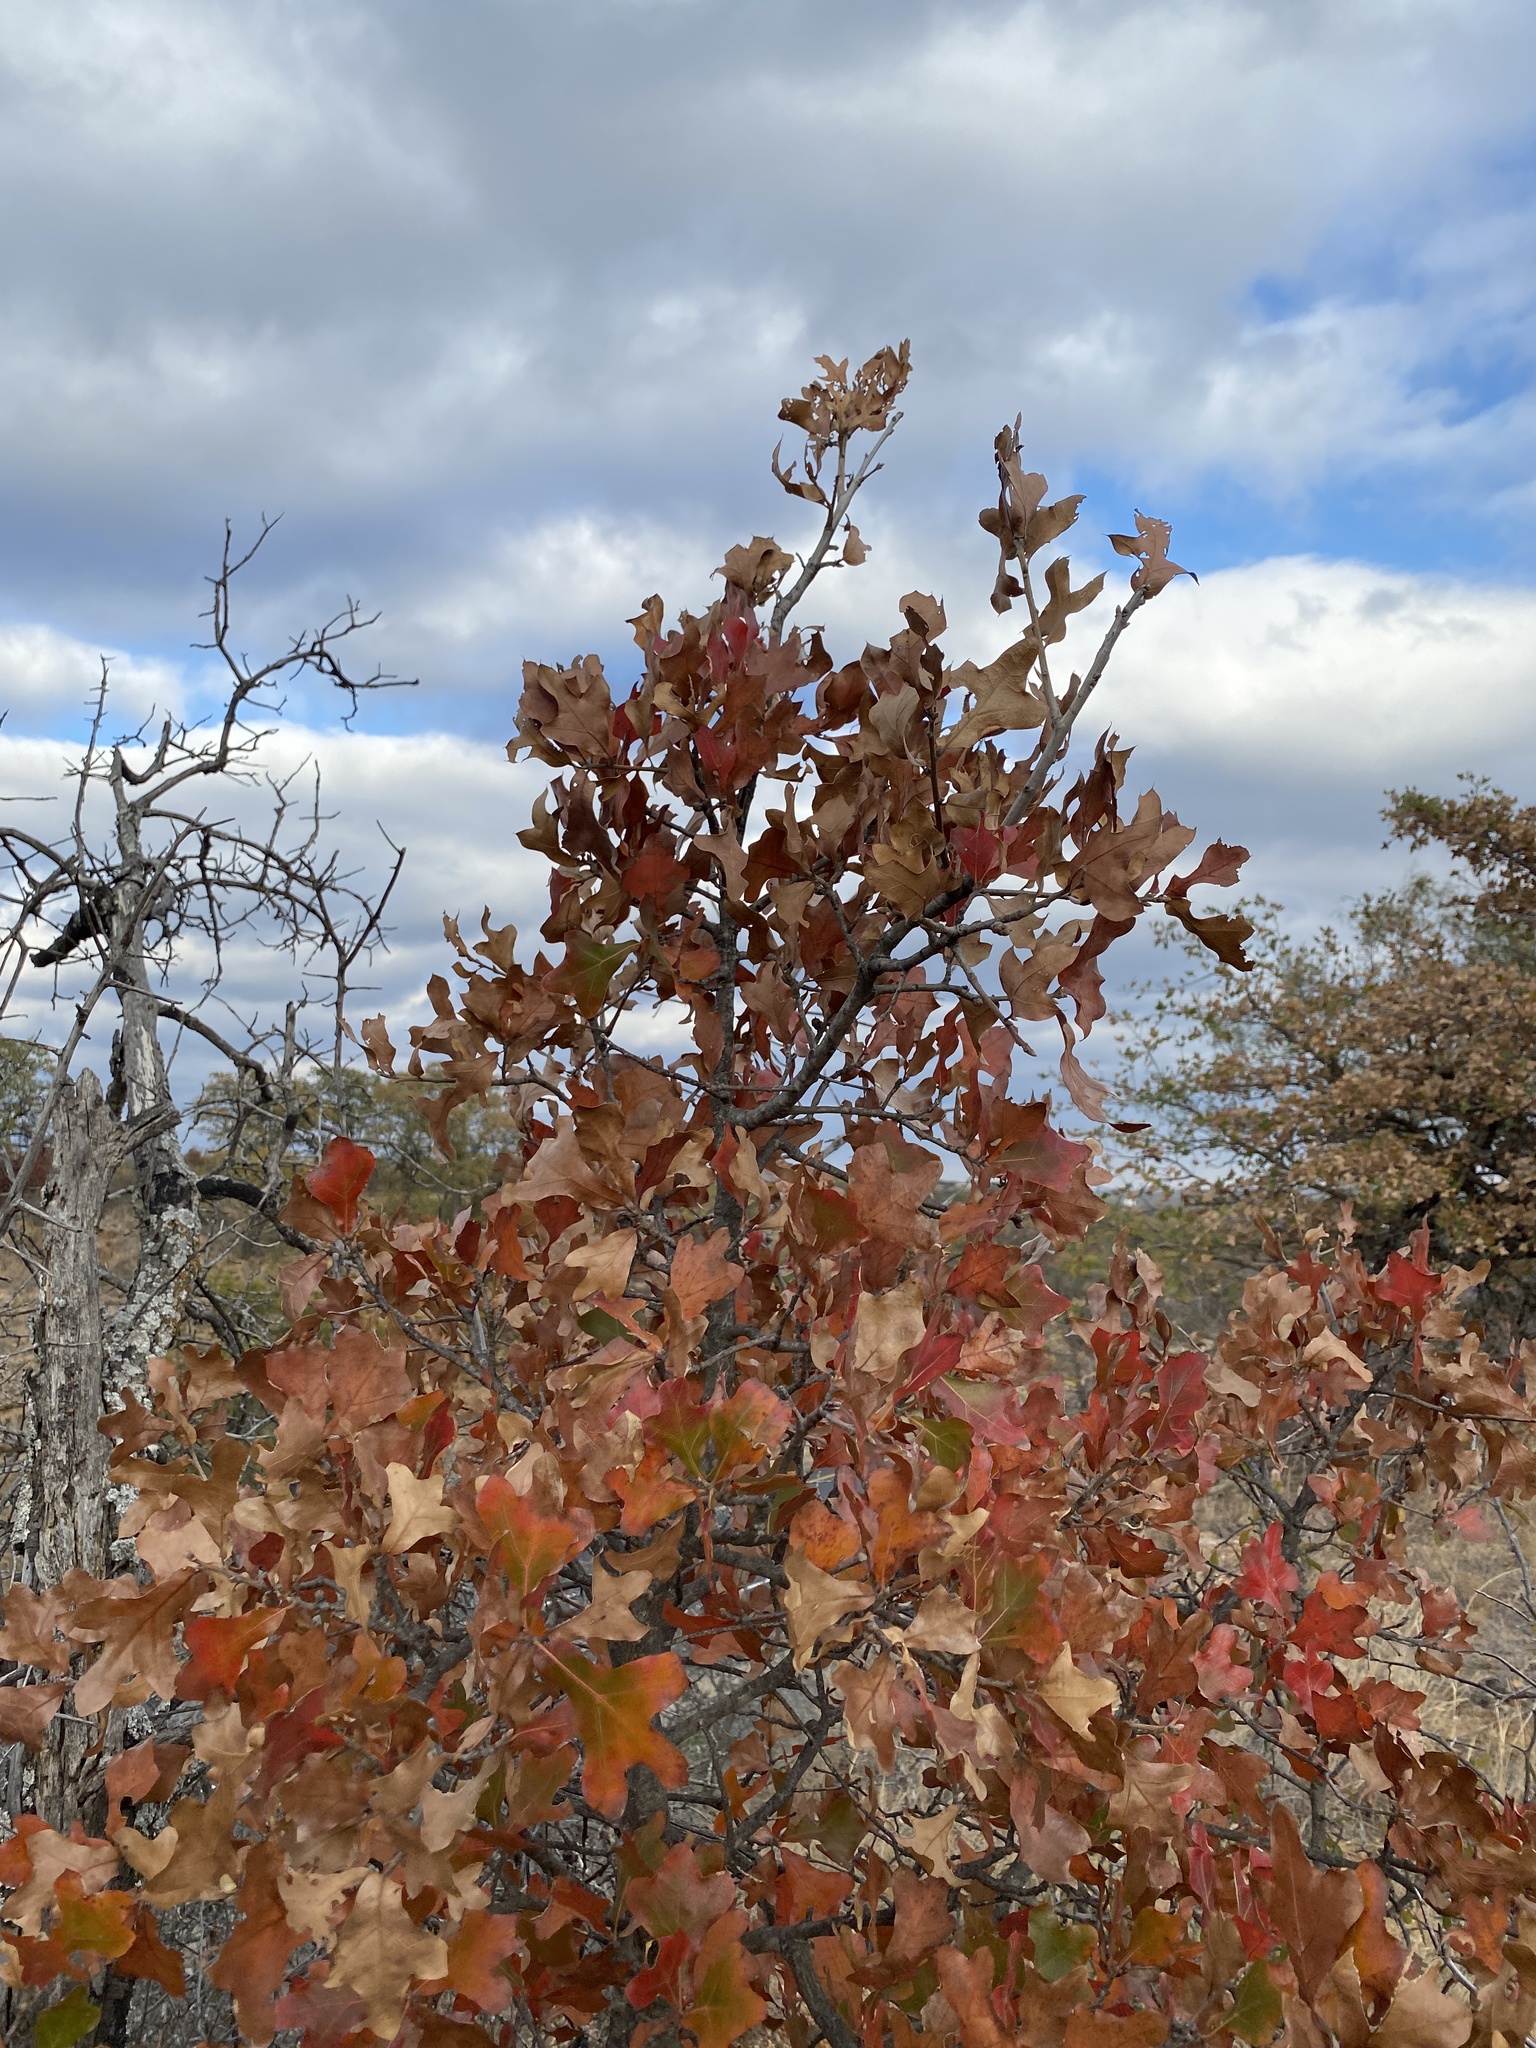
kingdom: Plantae
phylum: Tracheophyta
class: Magnoliopsida
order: Fagales
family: Fagaceae
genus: Quercus
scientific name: Quercus marilandica
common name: Blackjack oak
